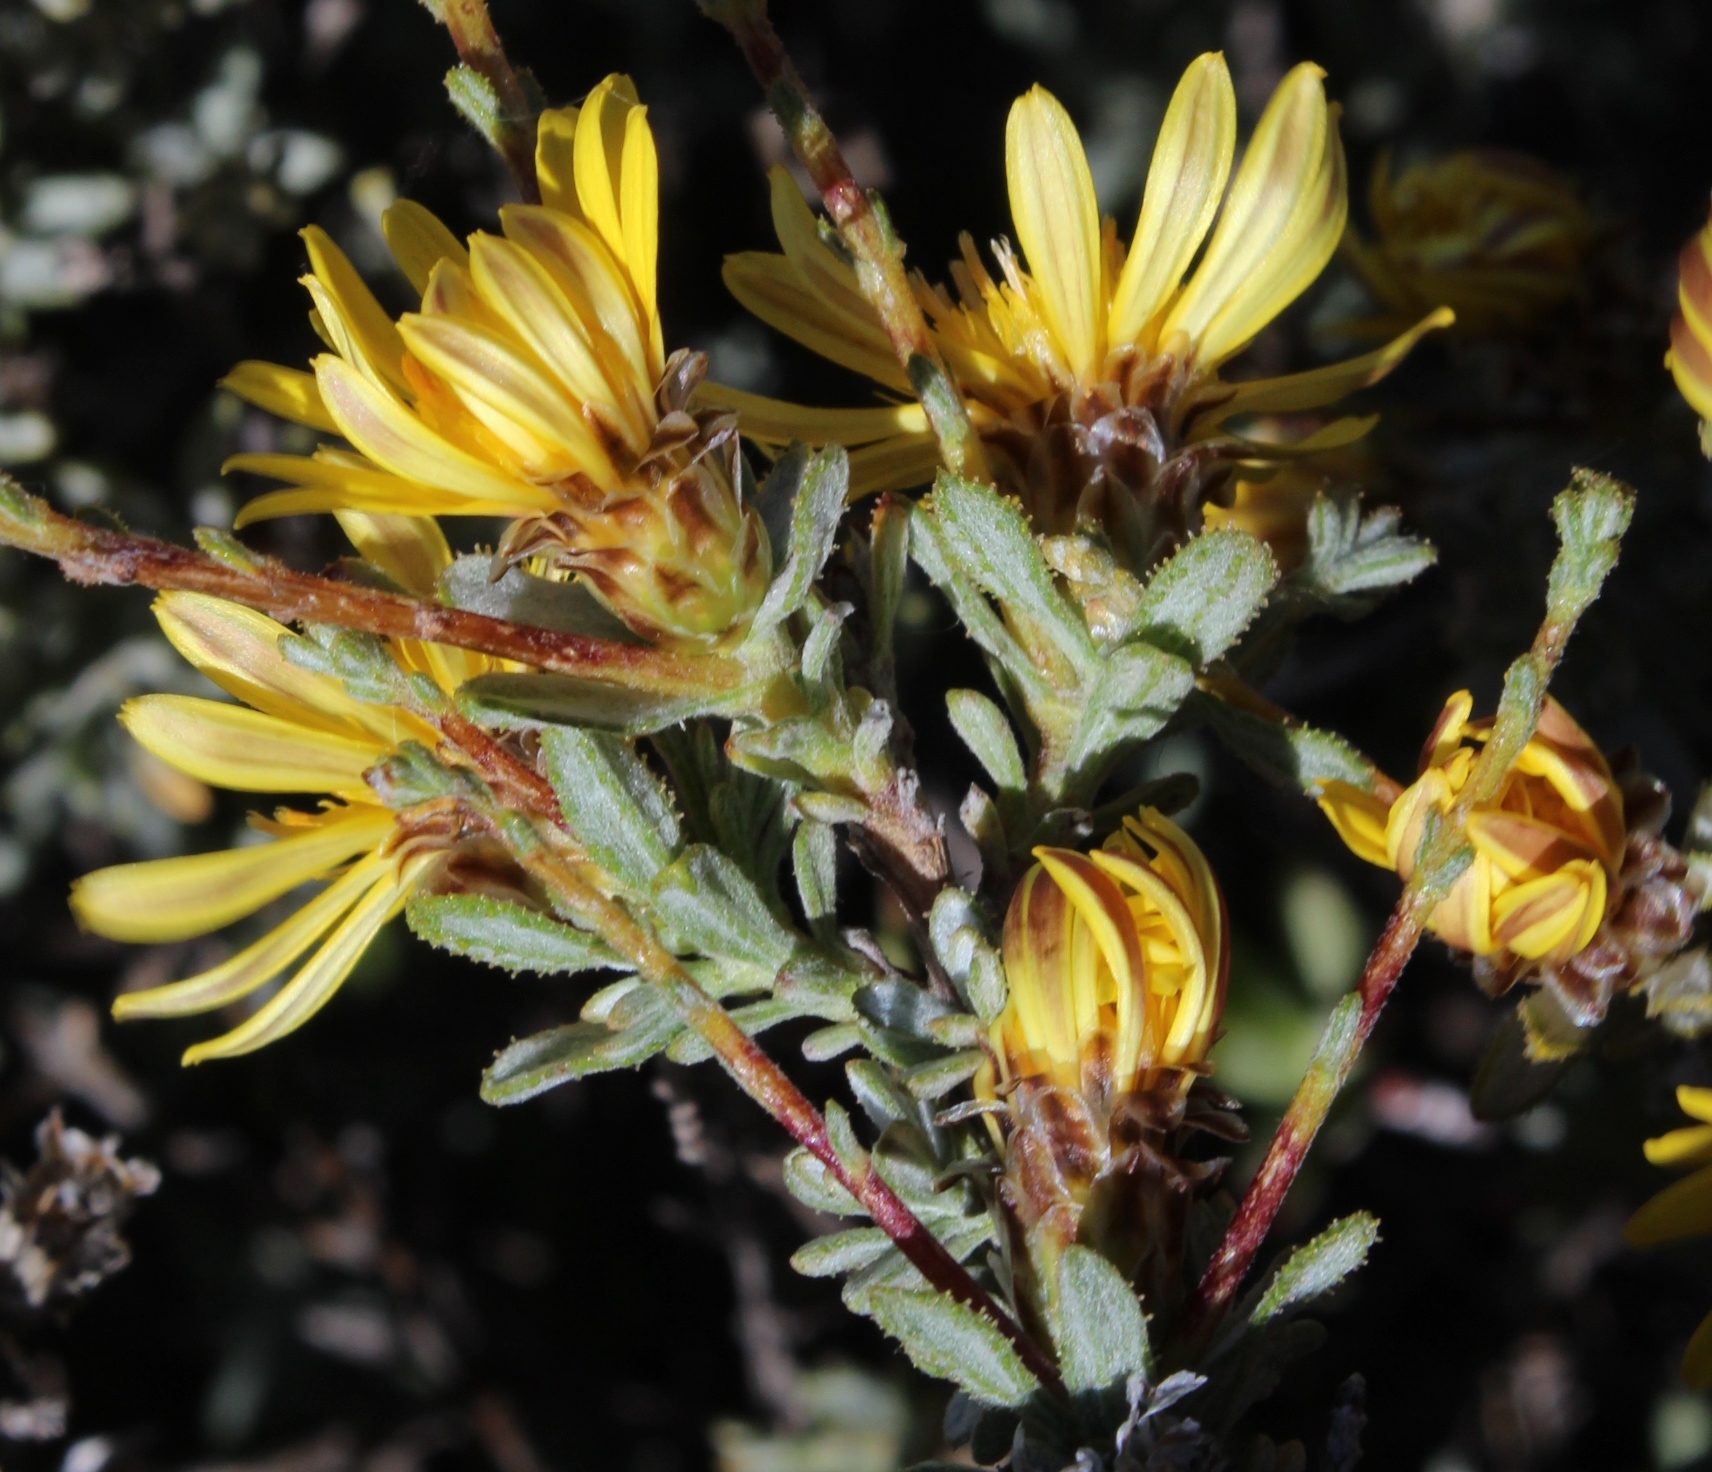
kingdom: Plantae
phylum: Tracheophyta
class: Magnoliopsida
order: Asterales
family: Asteraceae
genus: Oedera
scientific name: Oedera spinescens
